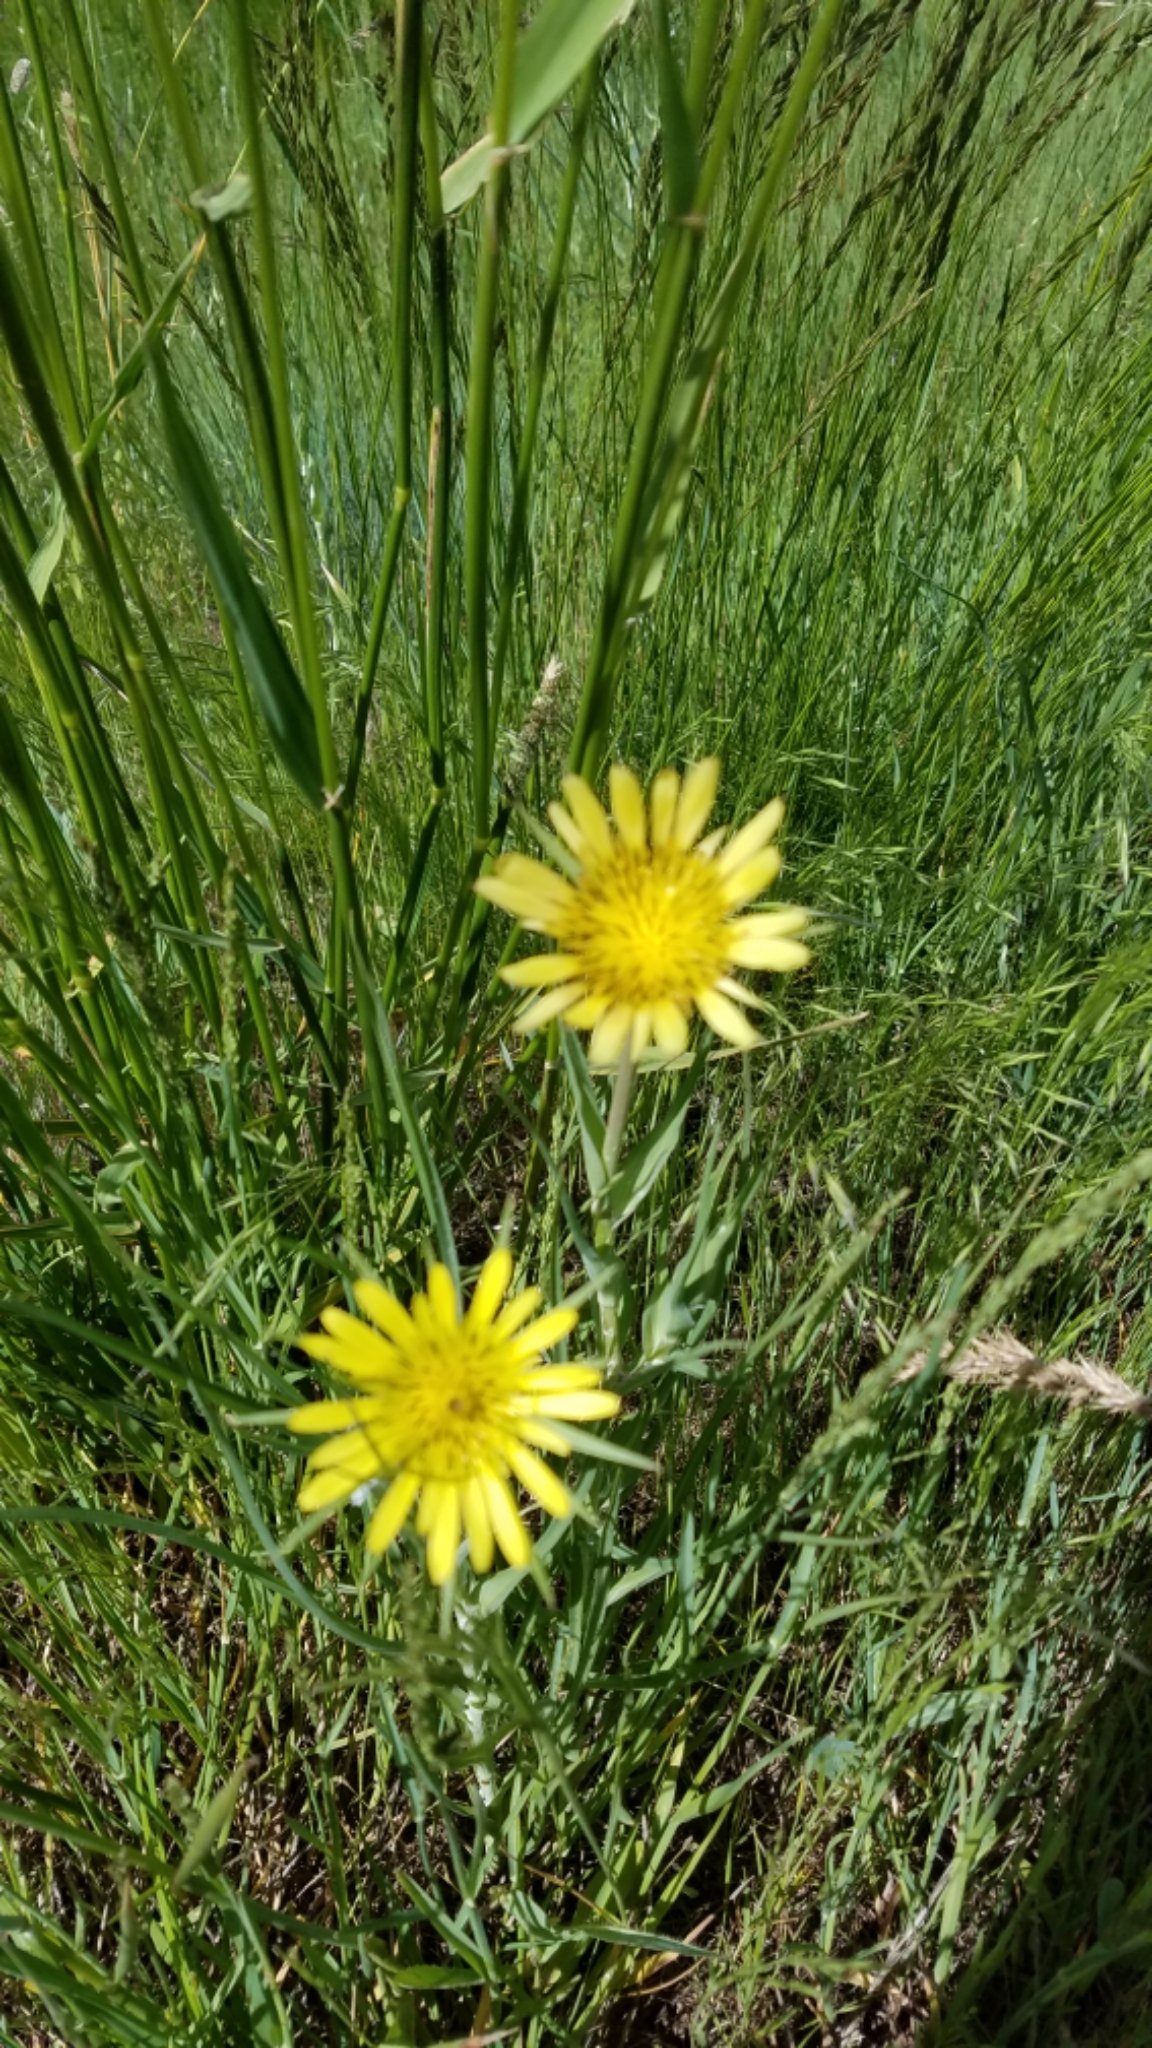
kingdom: Plantae
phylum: Tracheophyta
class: Magnoliopsida
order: Asterales
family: Asteraceae
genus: Tragopogon
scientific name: Tragopogon dubius
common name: Yellow salsify
